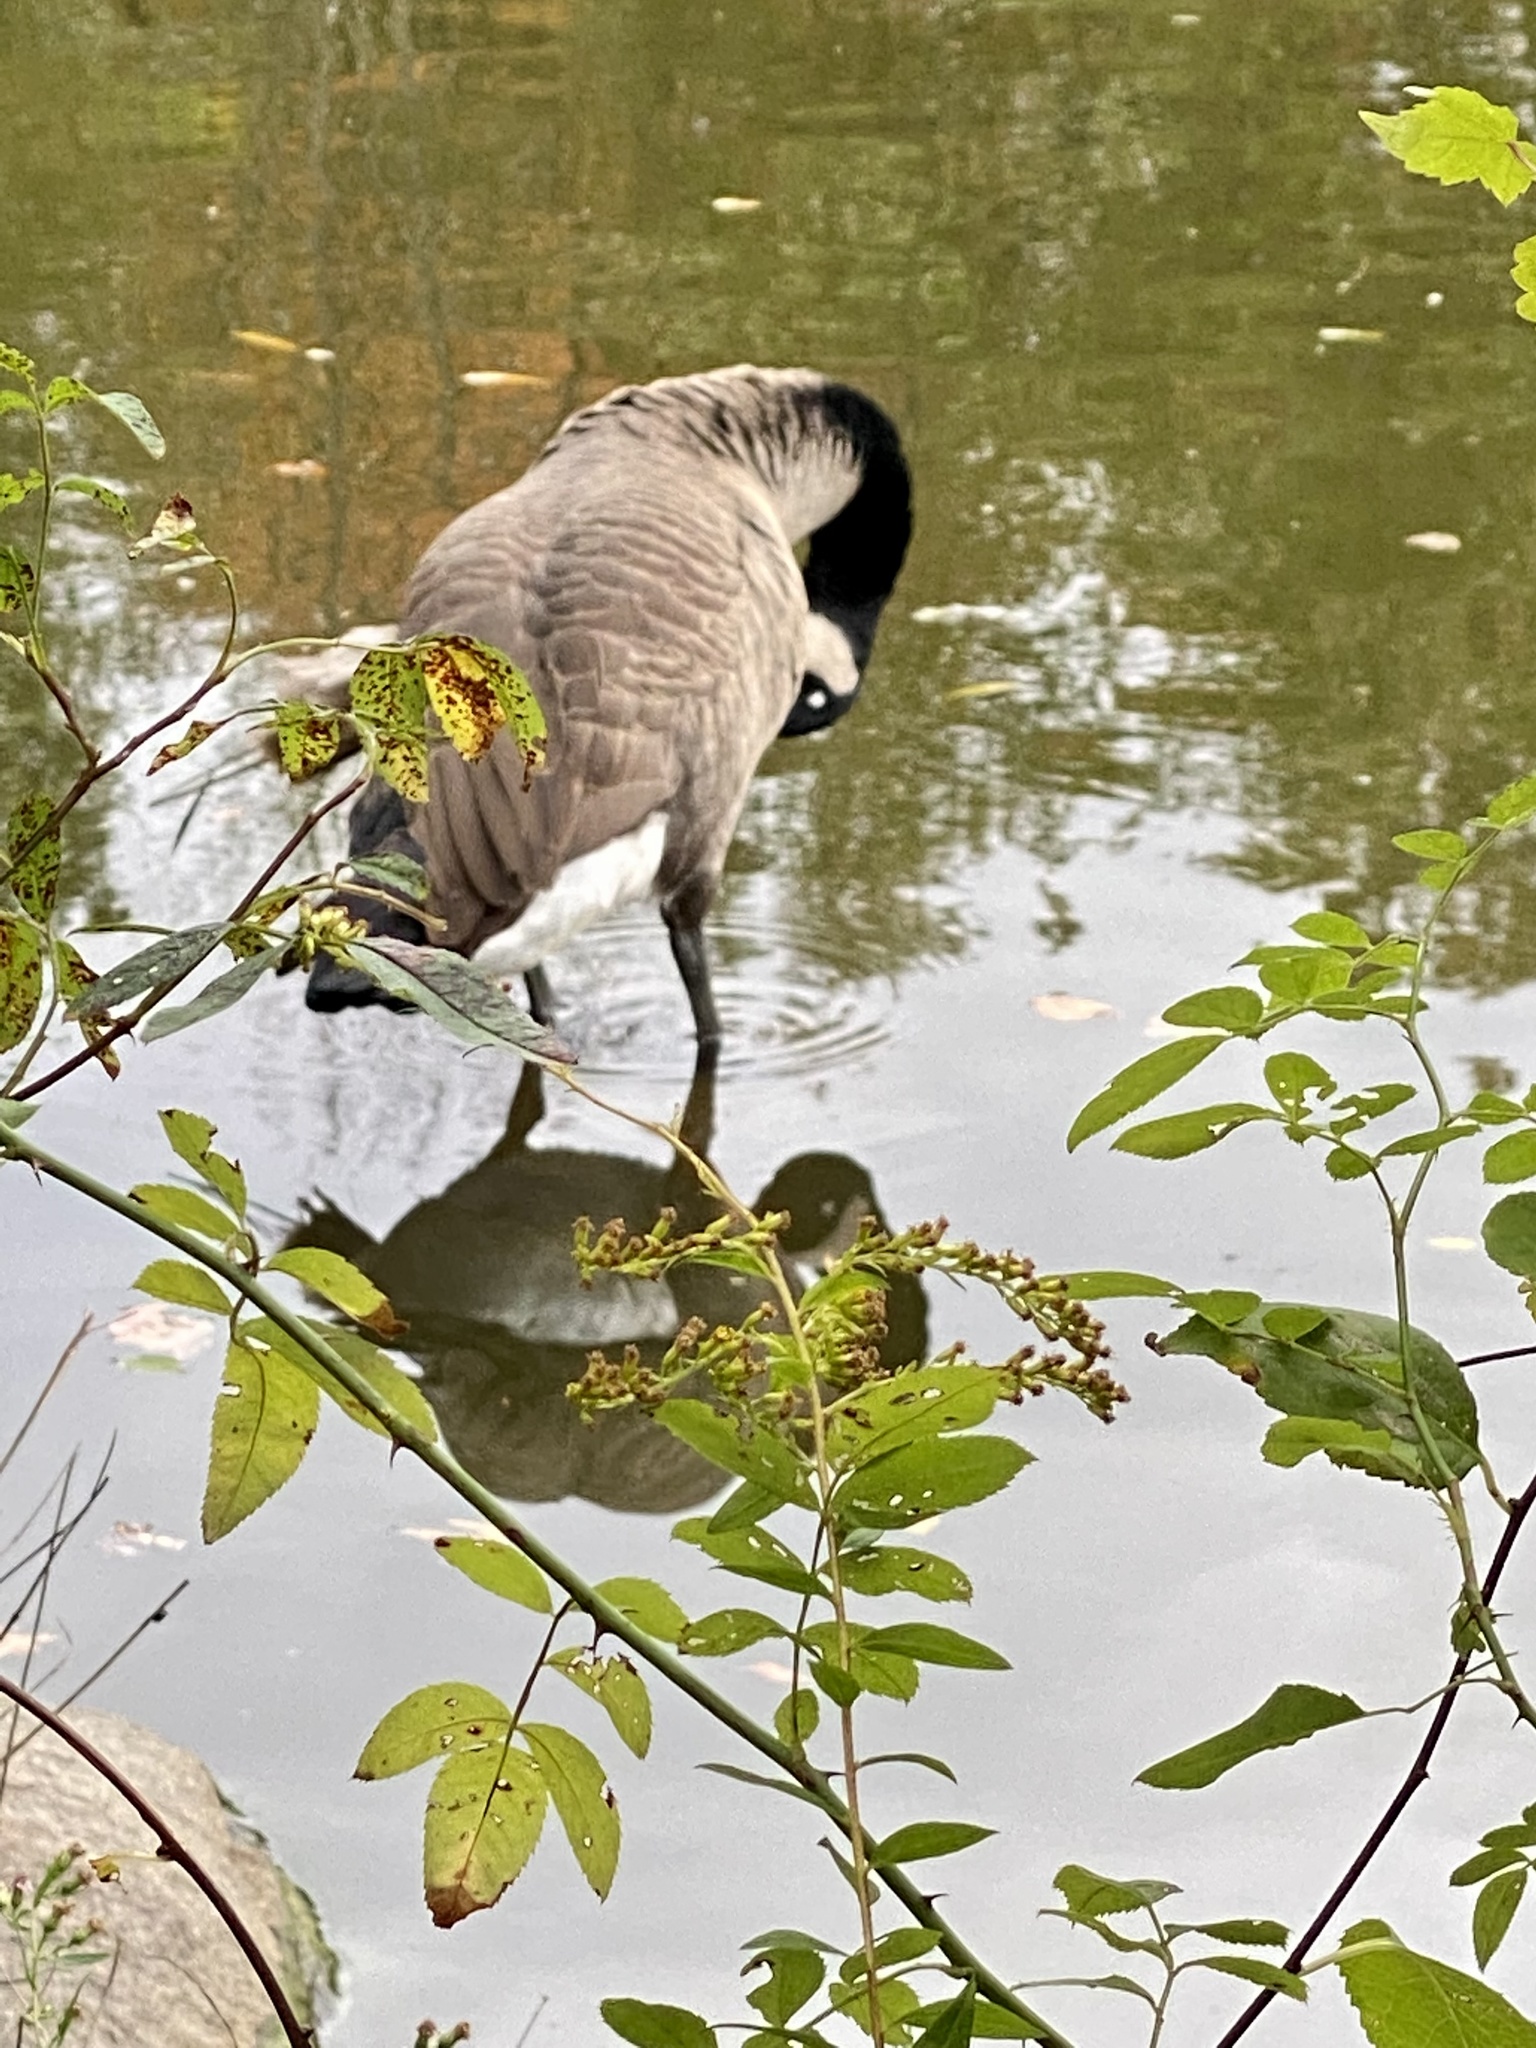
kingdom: Animalia
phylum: Chordata
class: Aves
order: Anseriformes
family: Anatidae
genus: Branta
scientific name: Branta canadensis
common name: Canada goose
